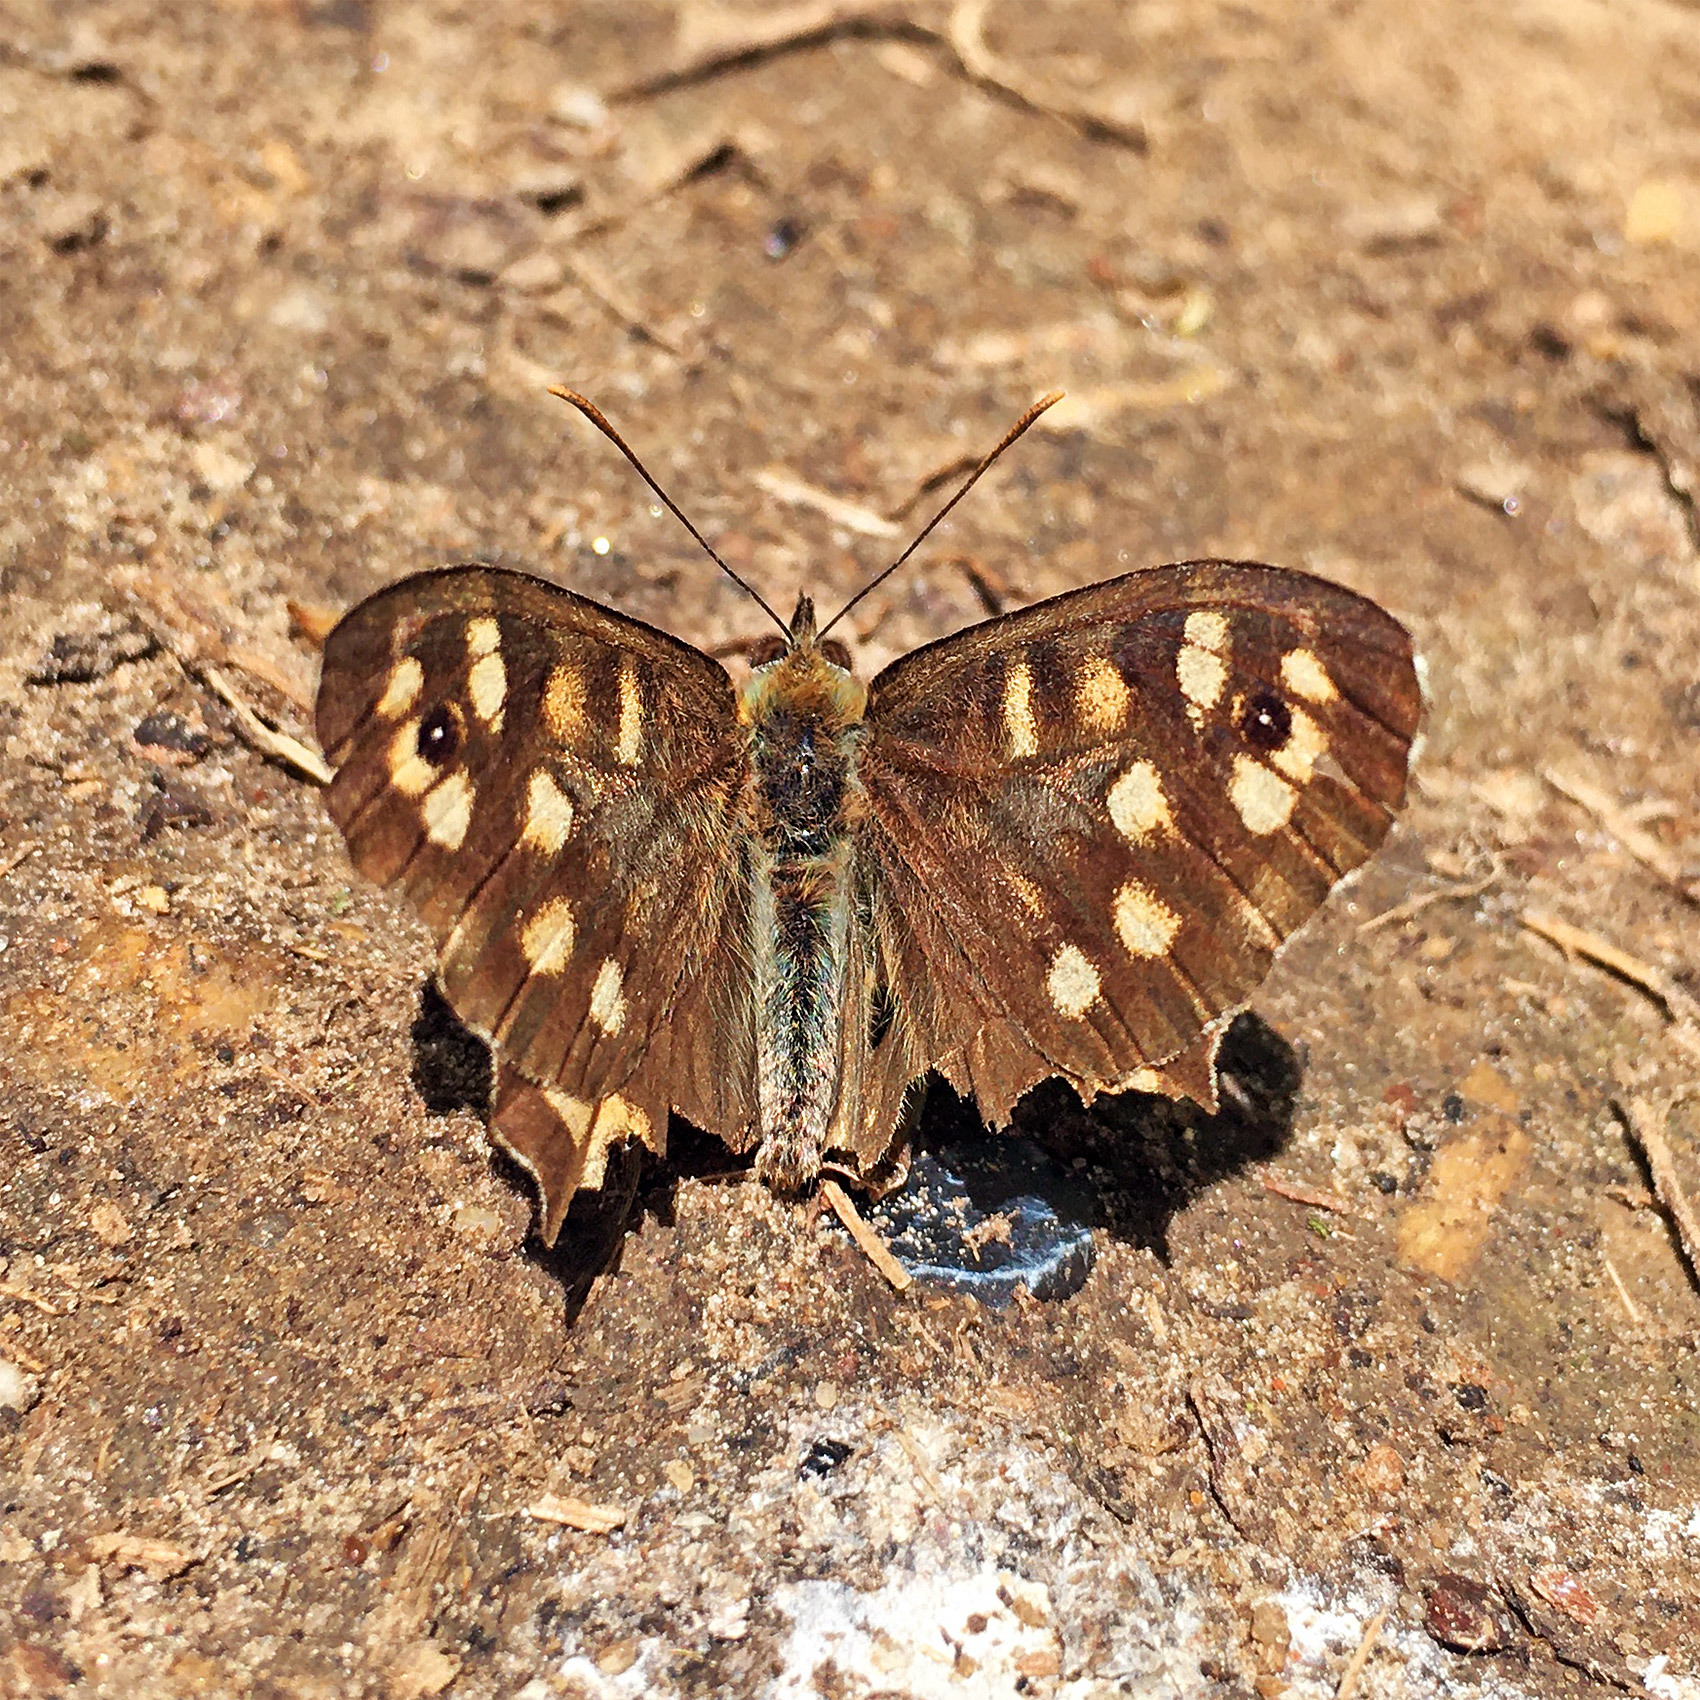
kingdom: Animalia
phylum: Arthropoda
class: Insecta
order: Lepidoptera
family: Nymphalidae
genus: Pararge
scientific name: Pararge aegeria
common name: Speckled wood
